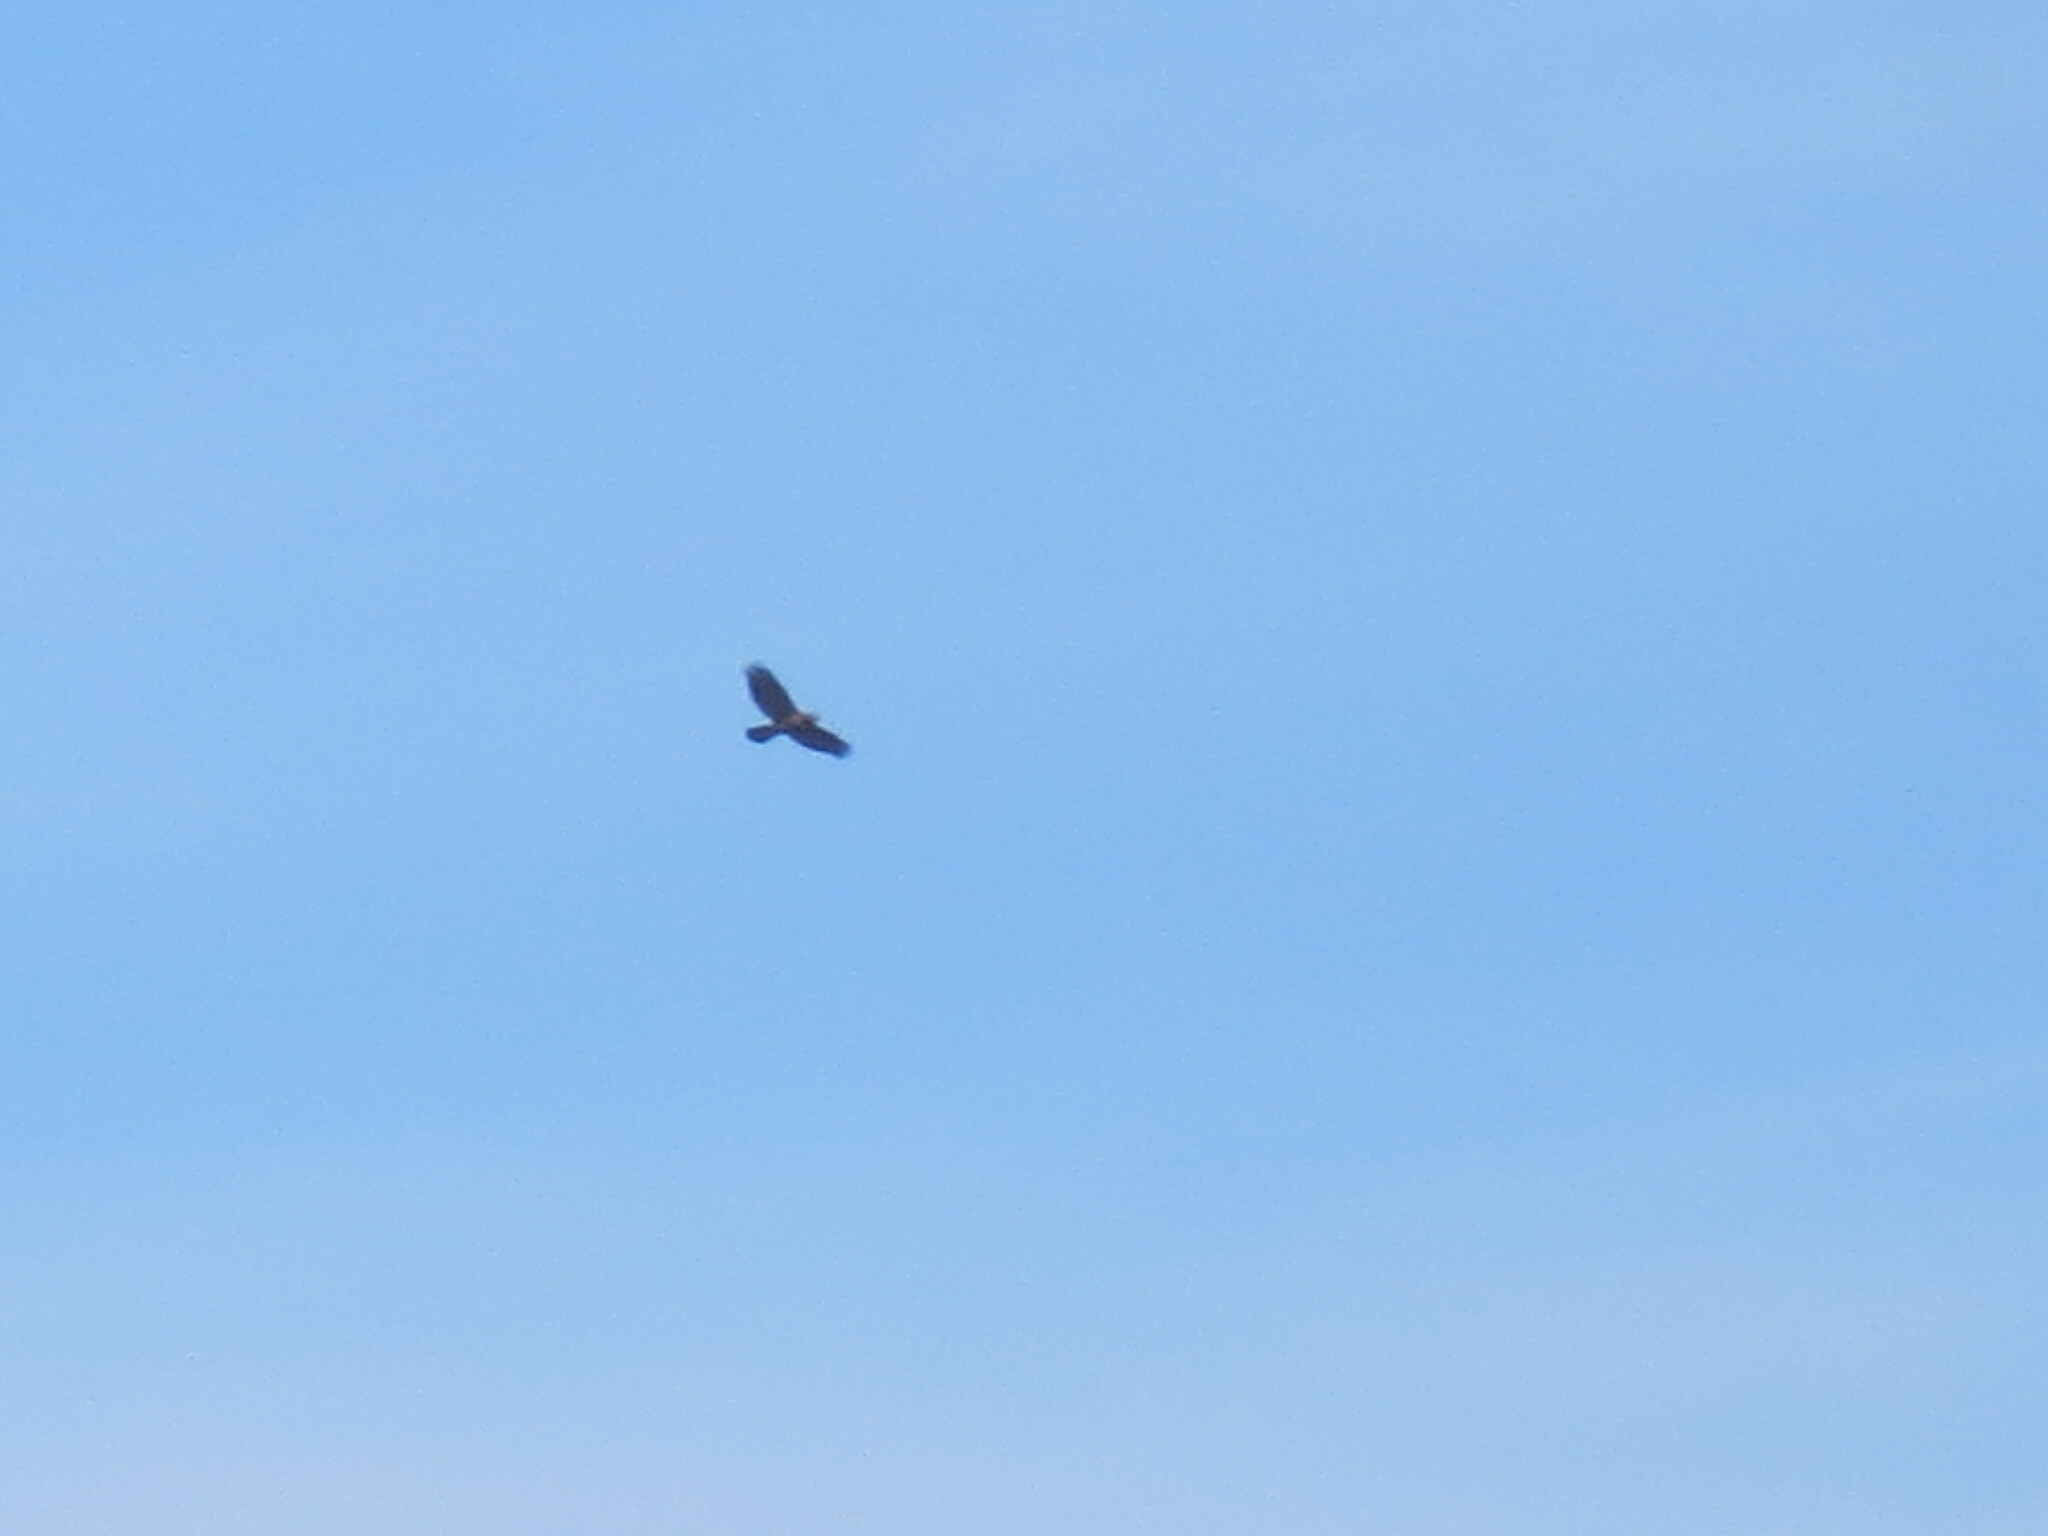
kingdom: Animalia
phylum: Chordata
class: Aves
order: Accipitriformes
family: Accipitridae
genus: Buteo
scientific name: Buteo jamaicensis
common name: Red-tailed hawk
